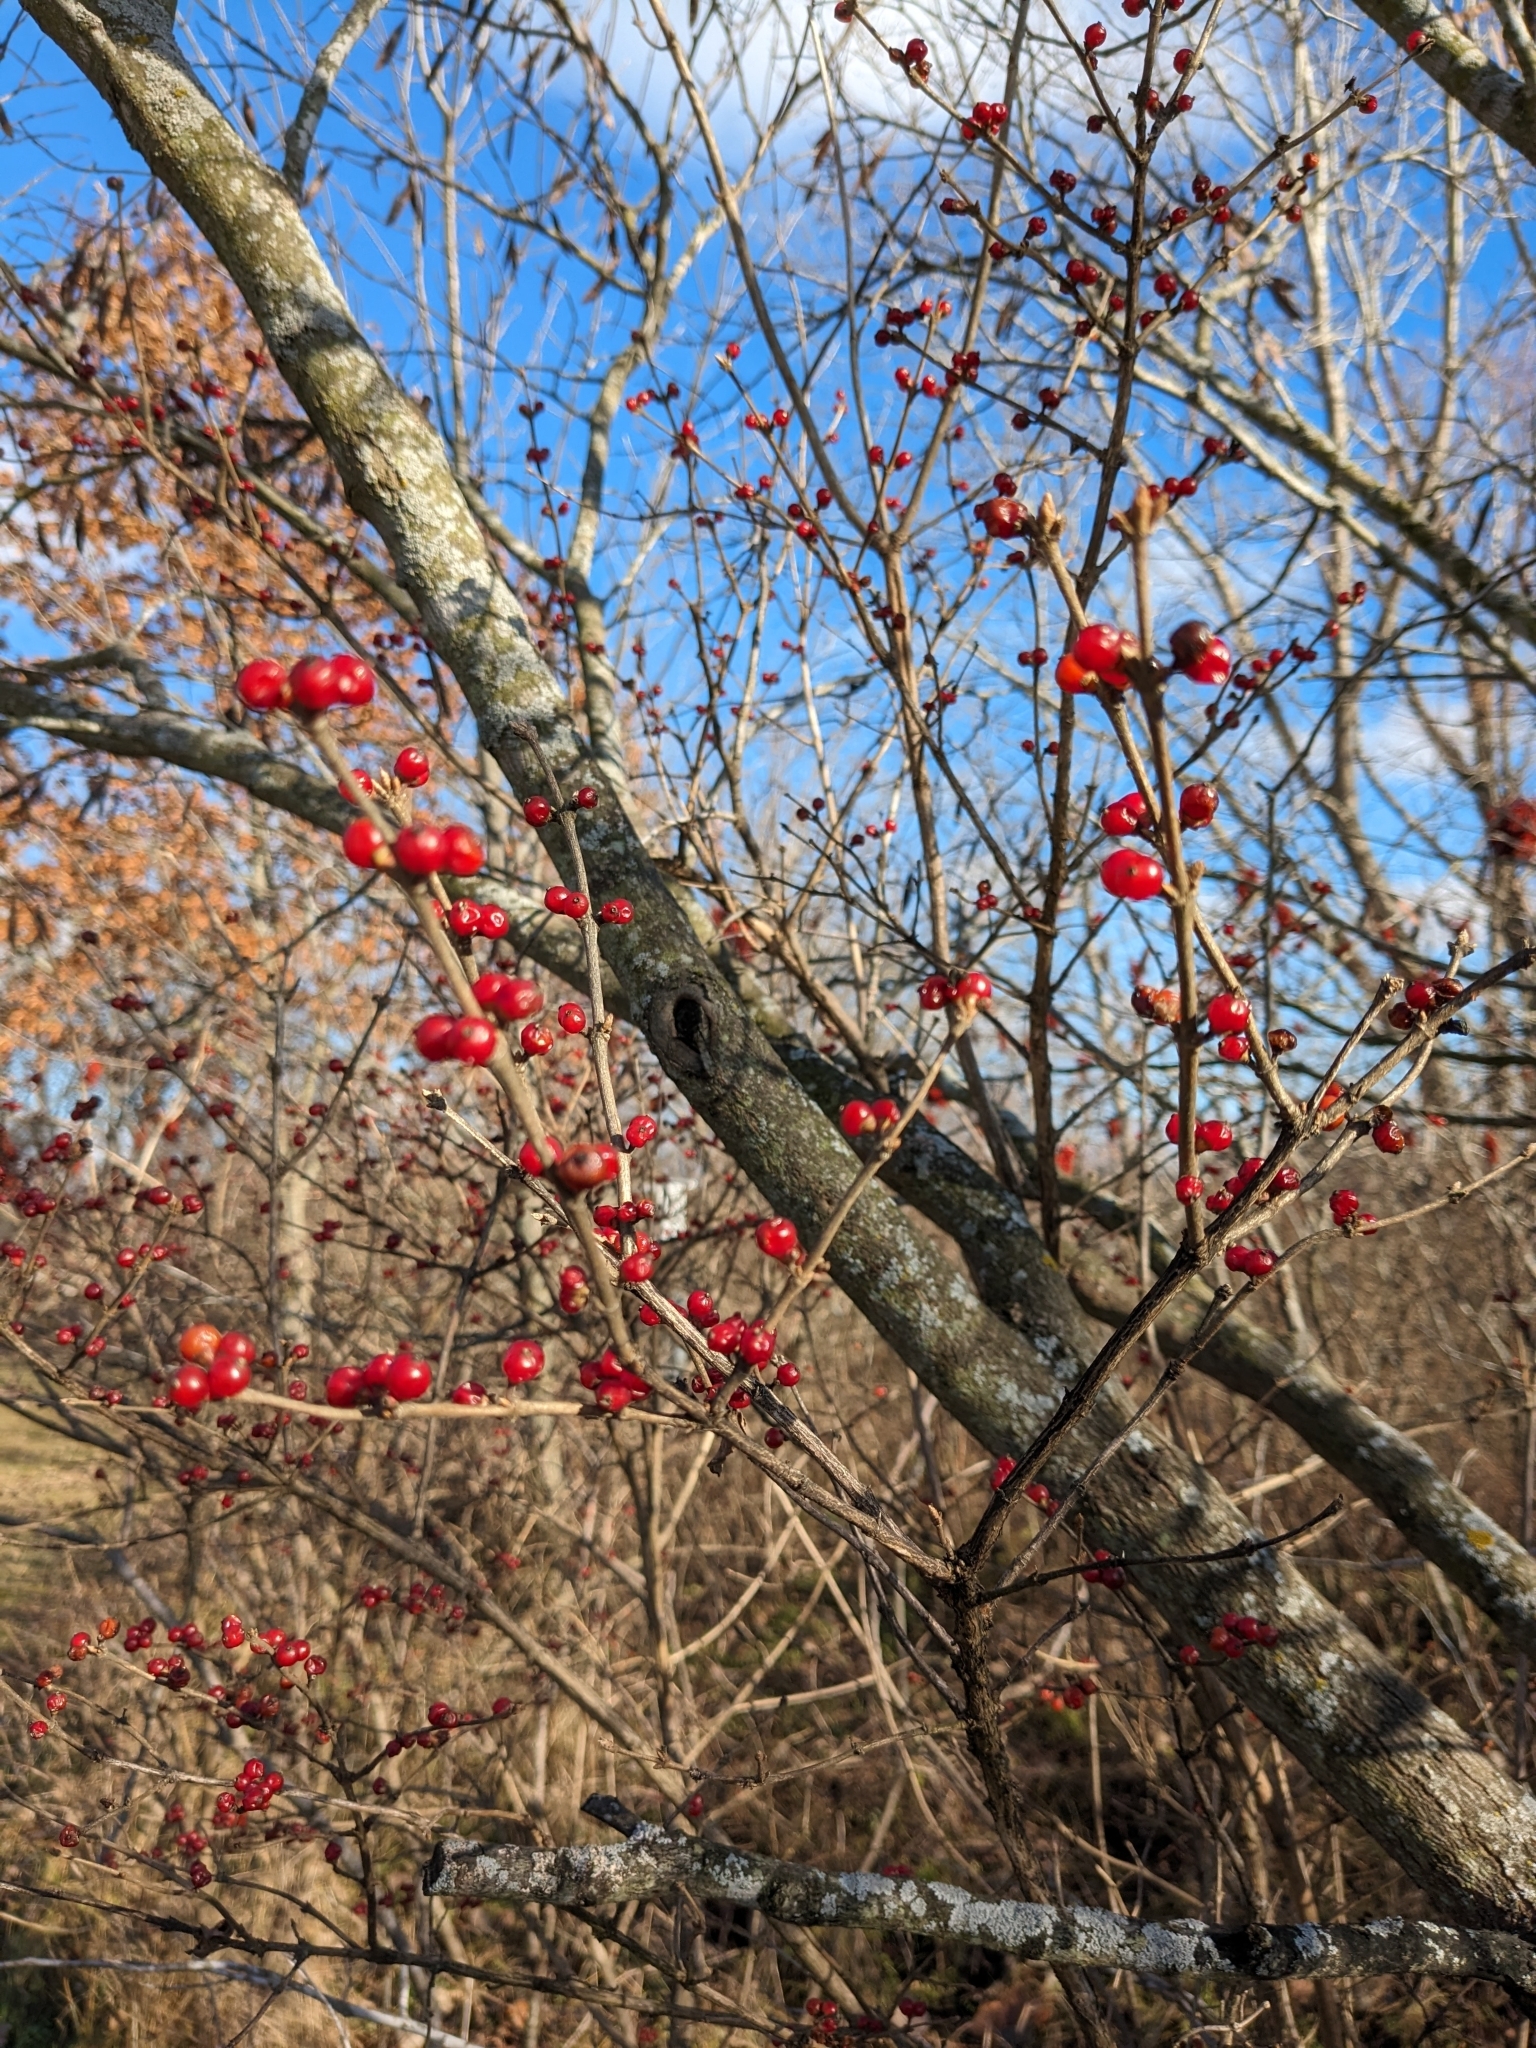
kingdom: Plantae
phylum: Tracheophyta
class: Magnoliopsida
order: Dipsacales
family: Caprifoliaceae
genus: Lonicera
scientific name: Lonicera maackii
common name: Amur honeysuckle
